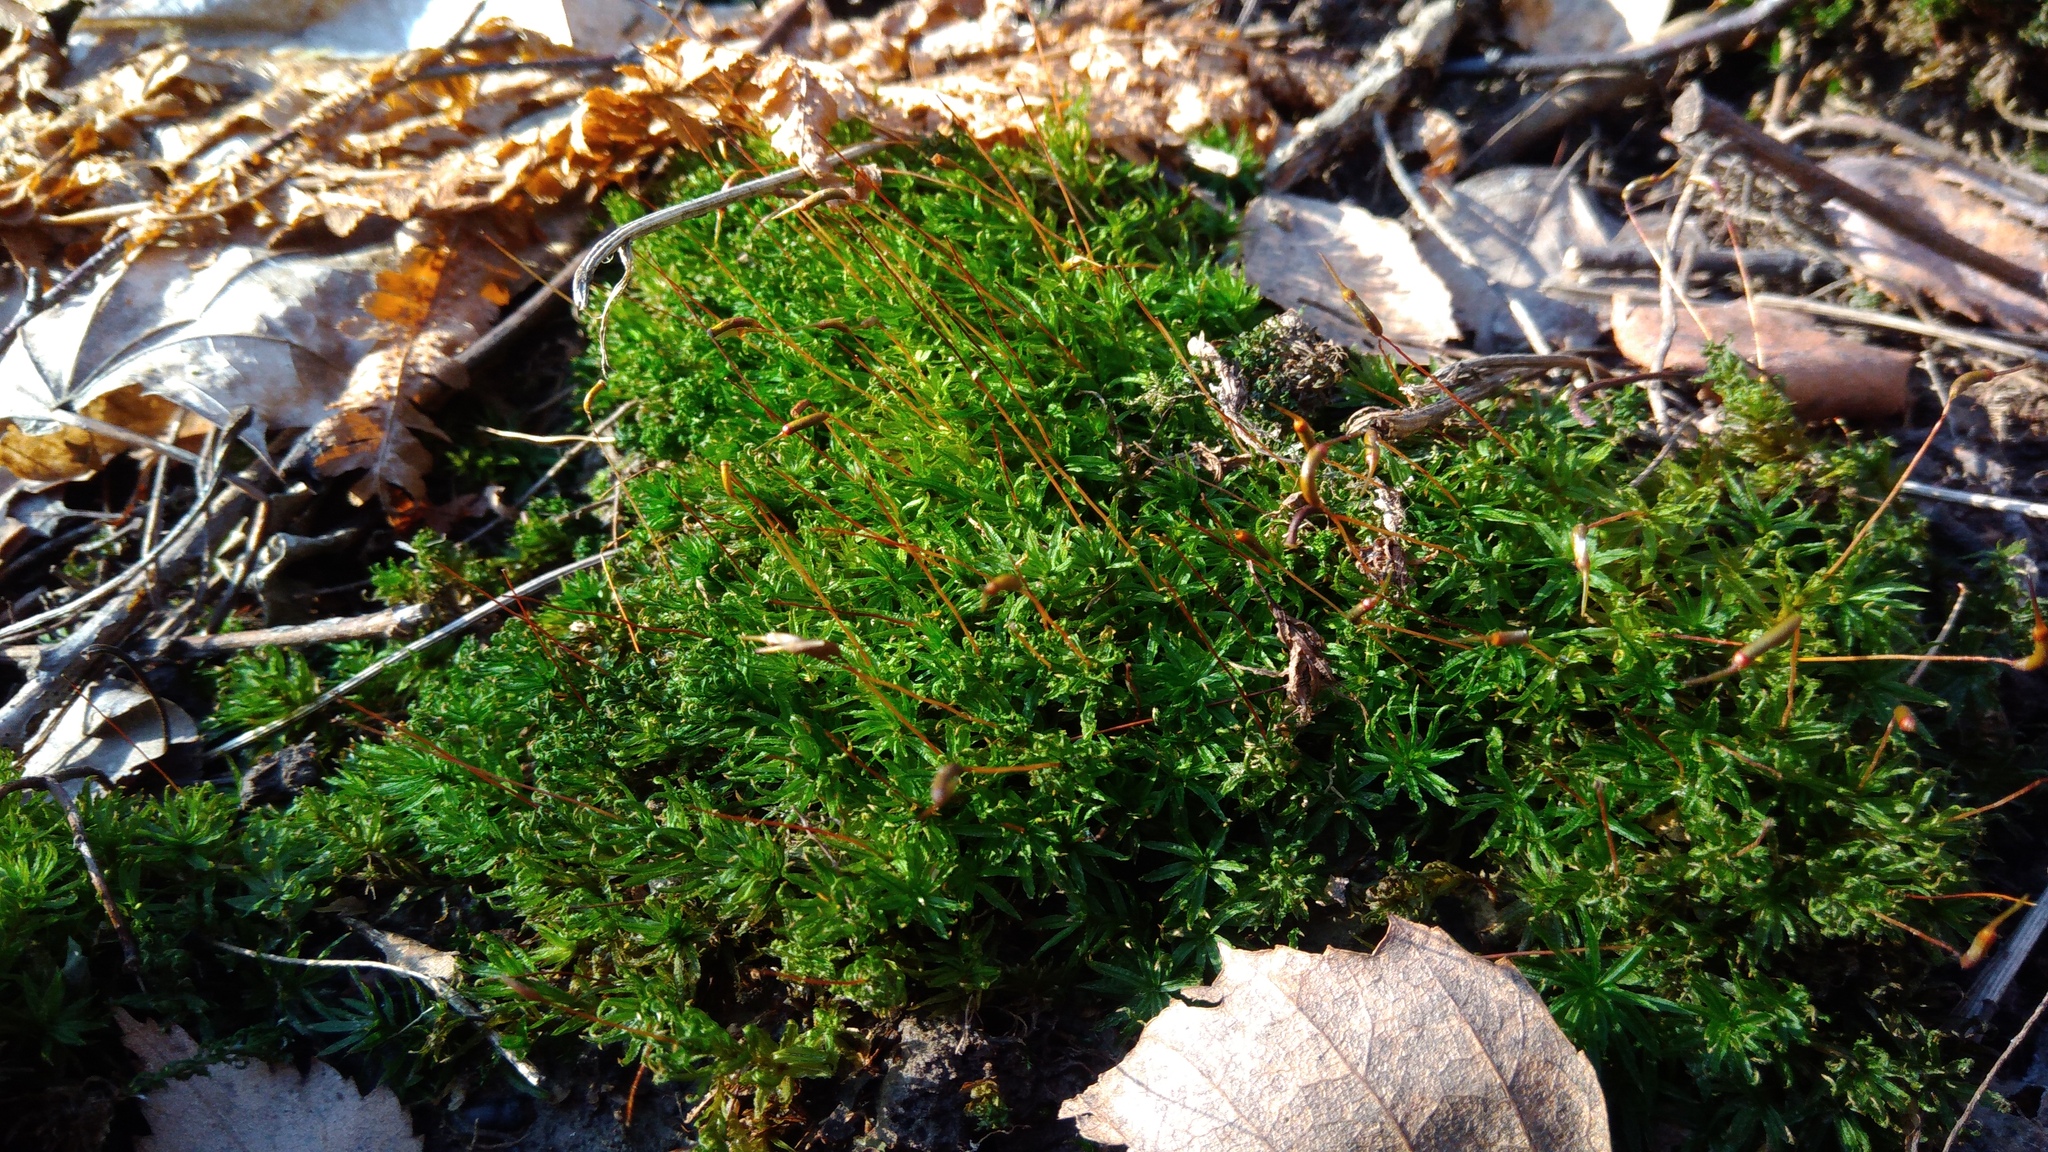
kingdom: Plantae
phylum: Bryophyta
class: Polytrichopsida
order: Polytrichales
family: Polytrichaceae
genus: Atrichum
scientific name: Atrichum undulatum
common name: Common smoothcap
